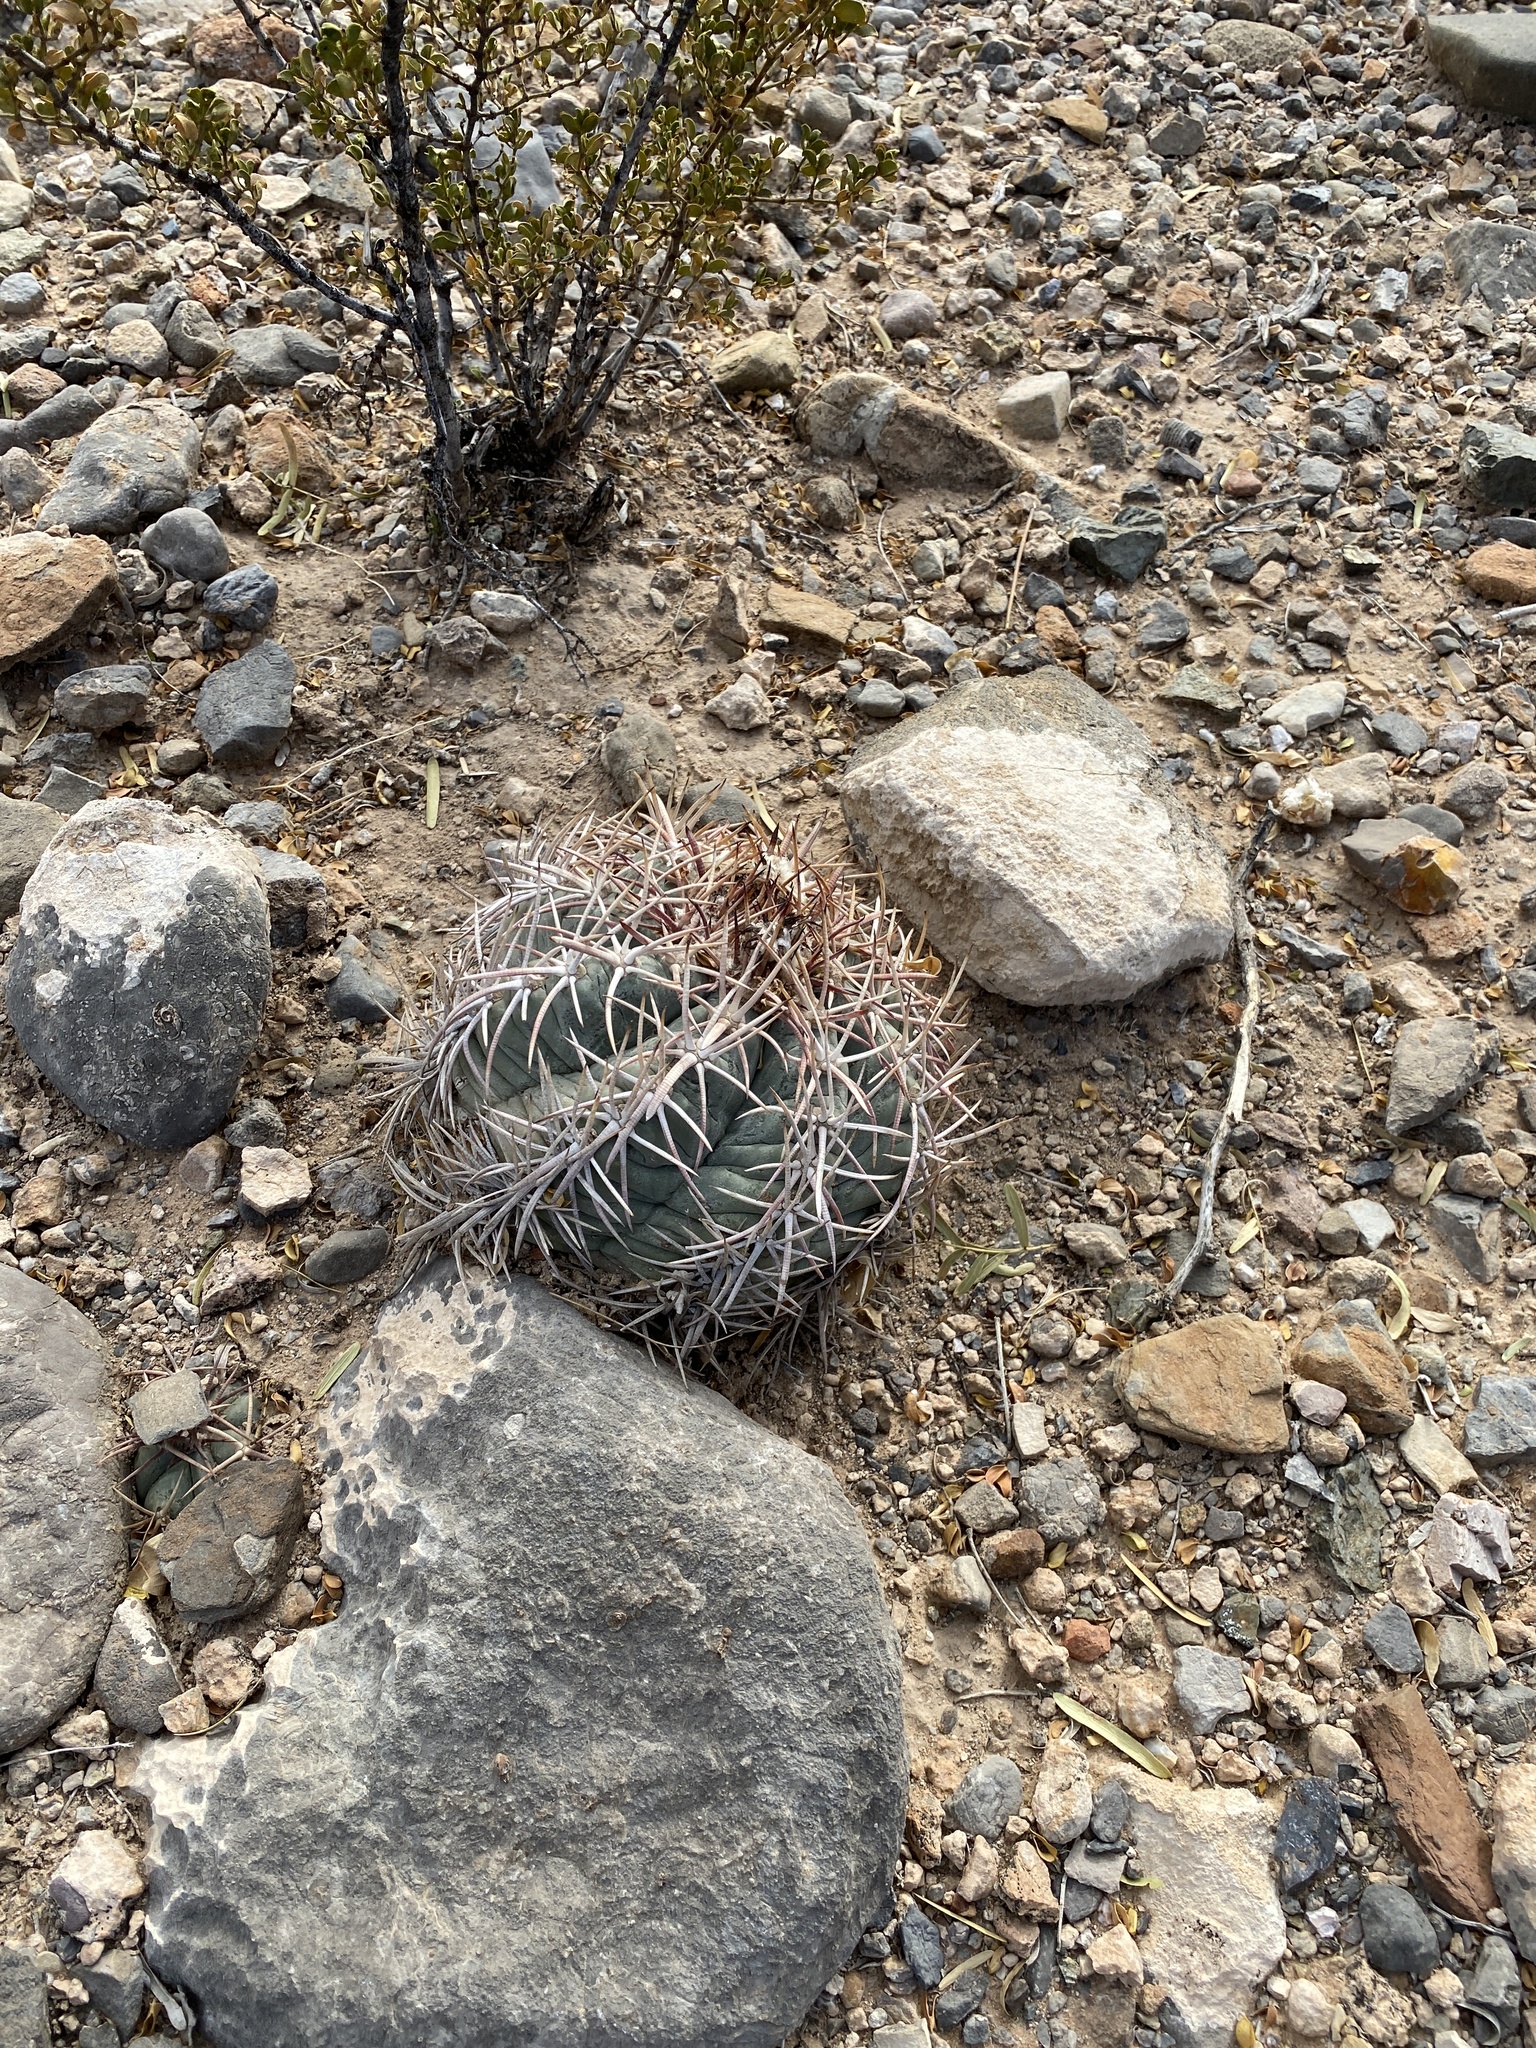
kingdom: Plantae
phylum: Tracheophyta
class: Magnoliopsida
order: Caryophyllales
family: Cactaceae
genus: Echinocactus
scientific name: Echinocactus horizonthalonius
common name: Devilshead
